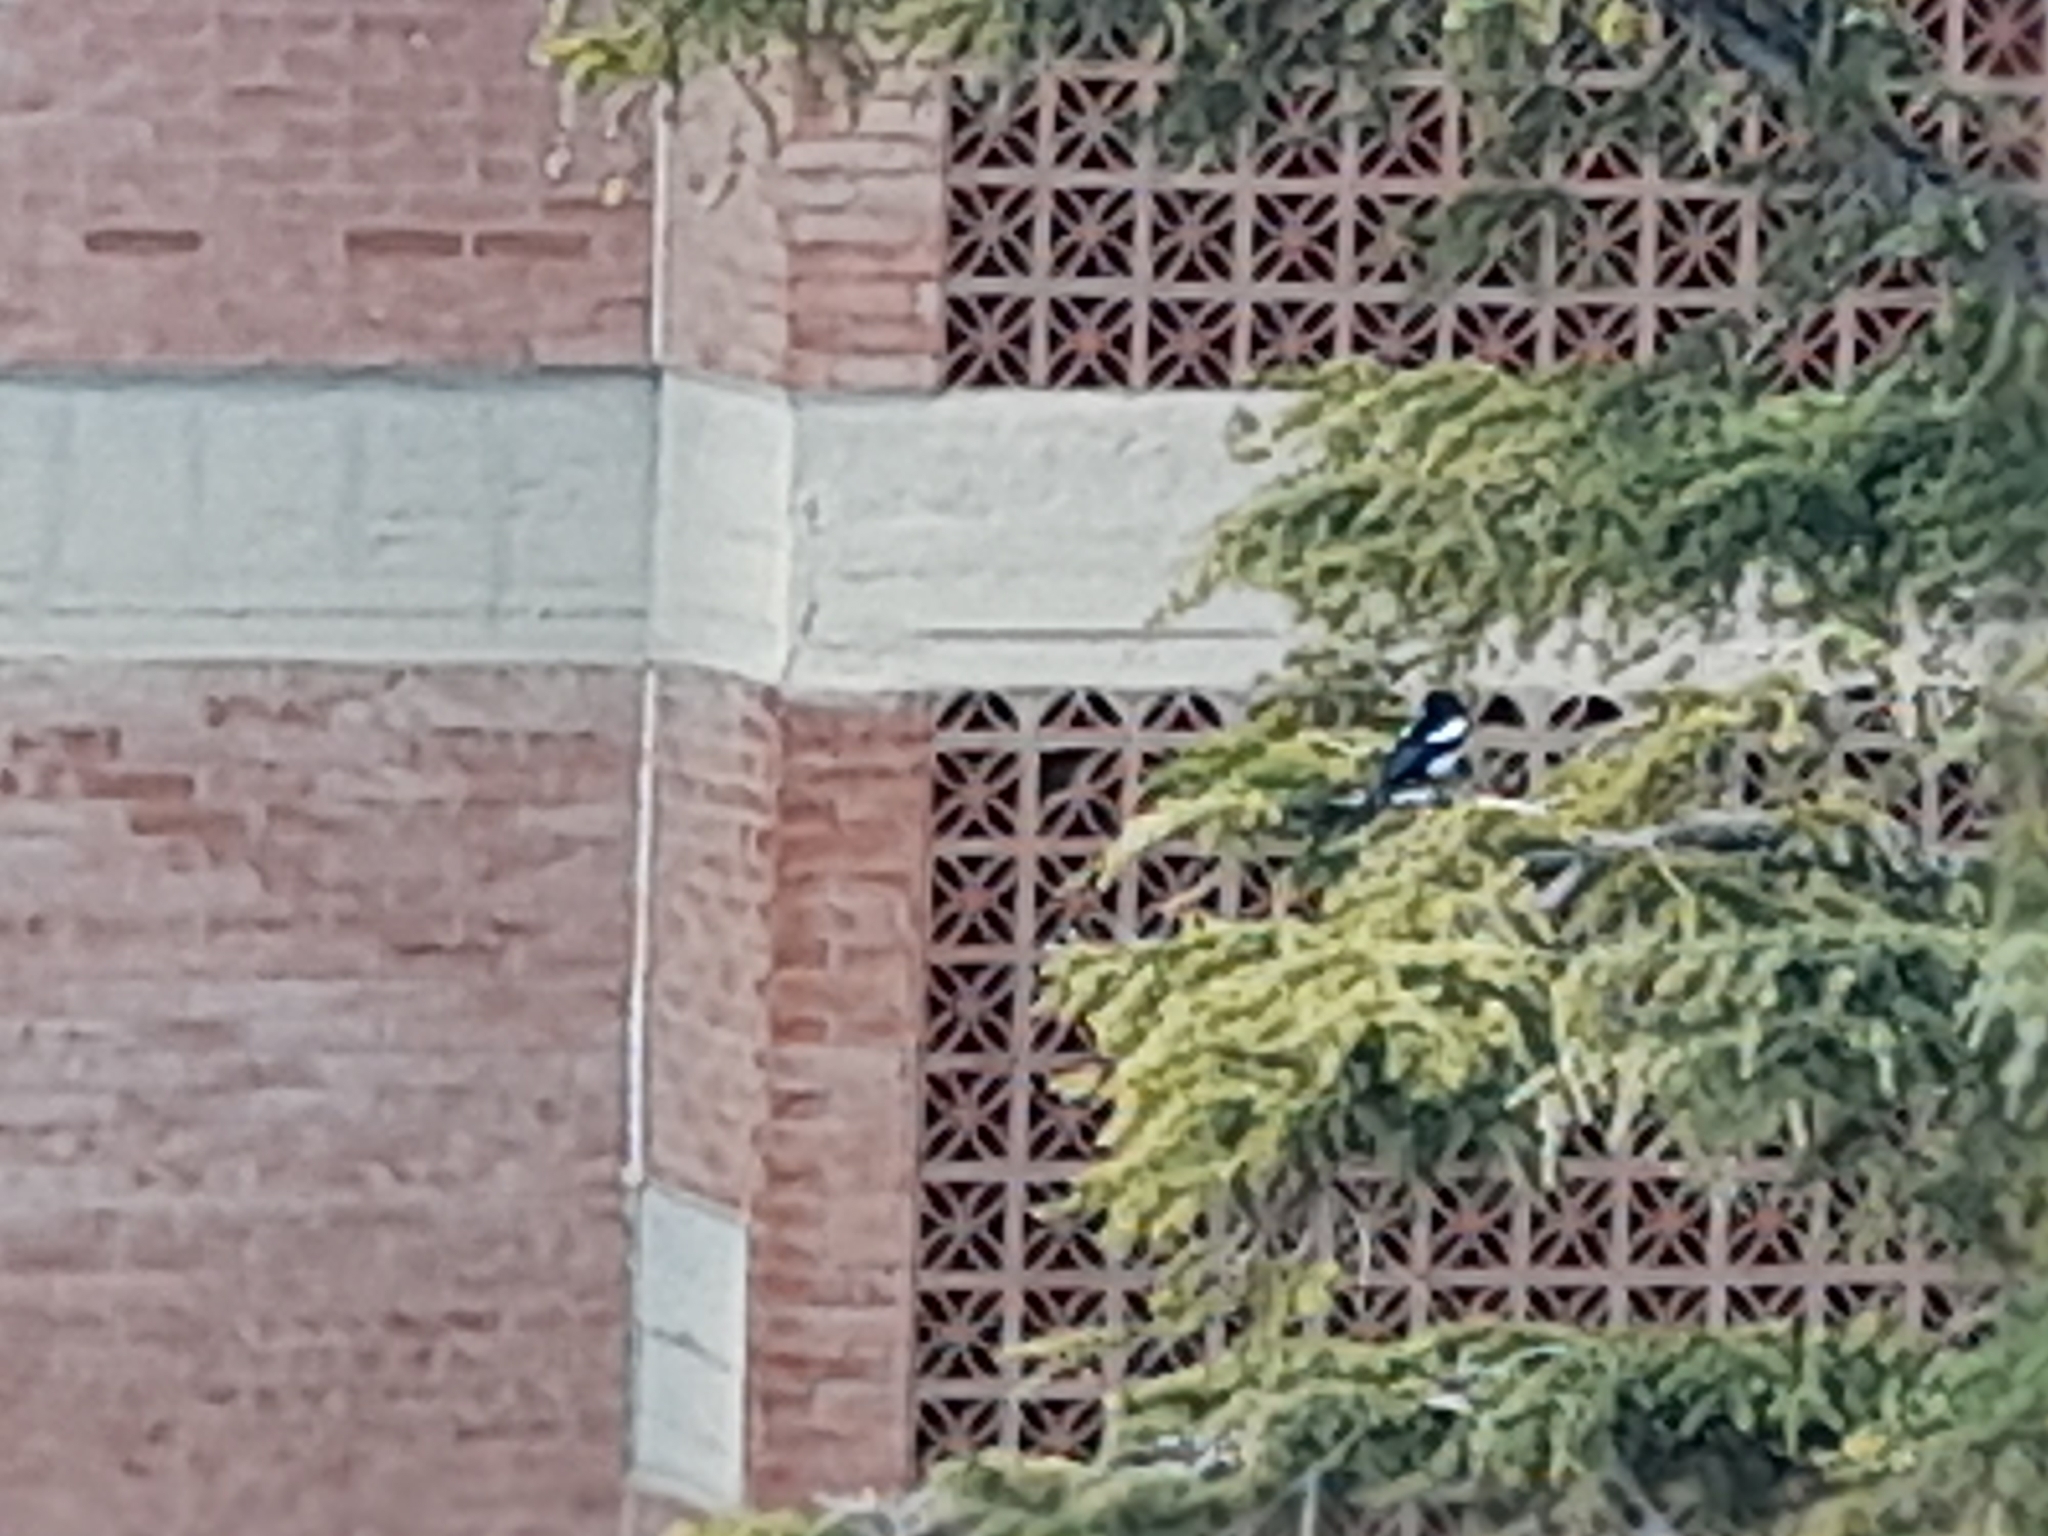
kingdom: Animalia
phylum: Chordata
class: Aves
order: Passeriformes
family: Corvidae
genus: Pica
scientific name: Pica pica
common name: Eurasian magpie
